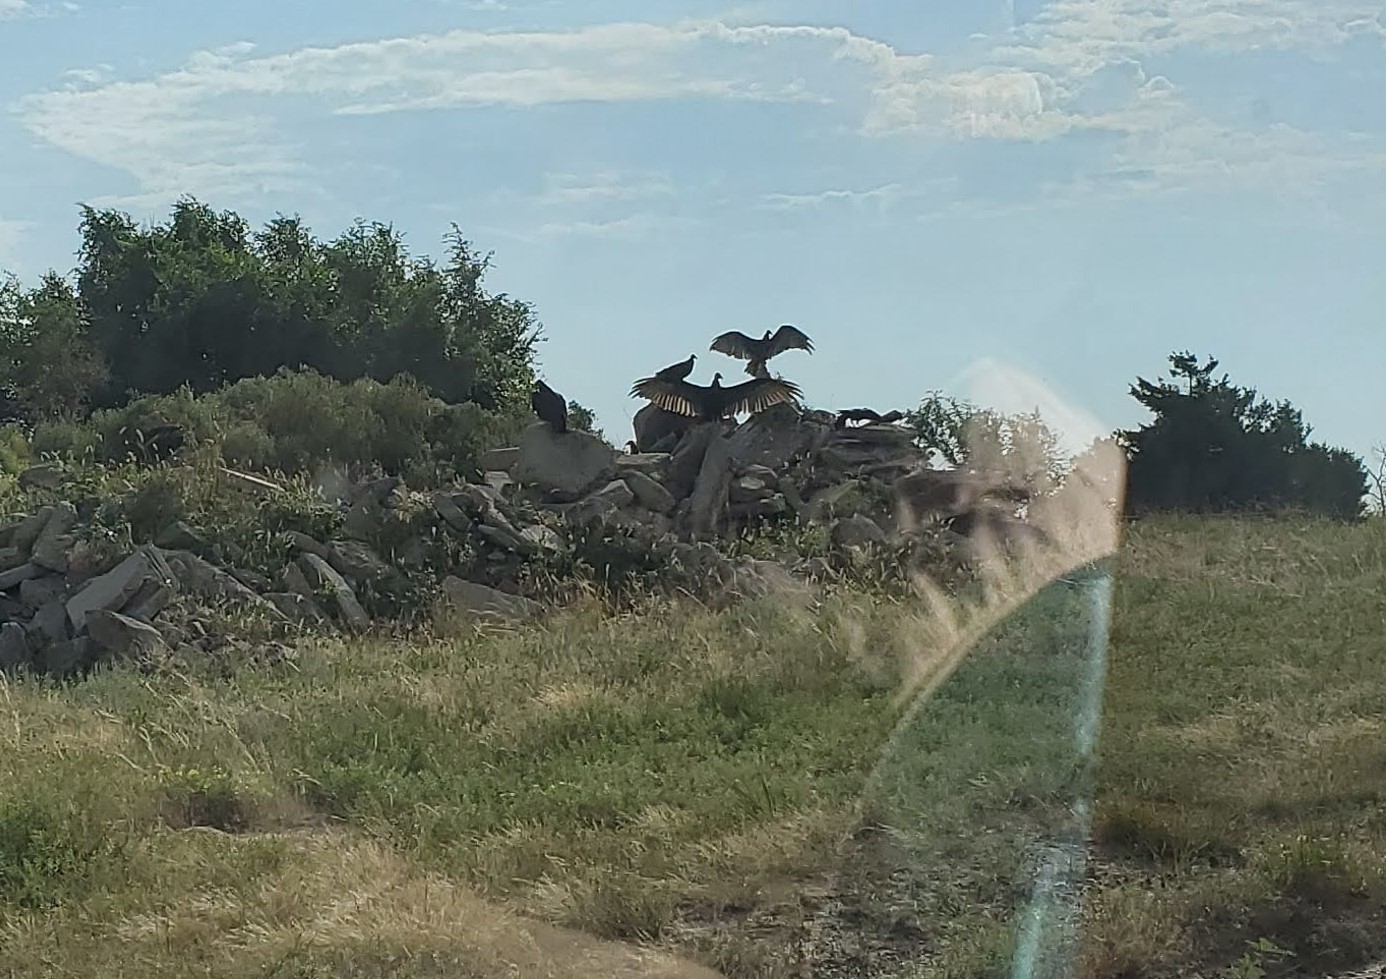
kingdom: Animalia
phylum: Chordata
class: Aves
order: Accipitriformes
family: Cathartidae
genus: Cathartes
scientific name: Cathartes aura
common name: Turkey vulture
